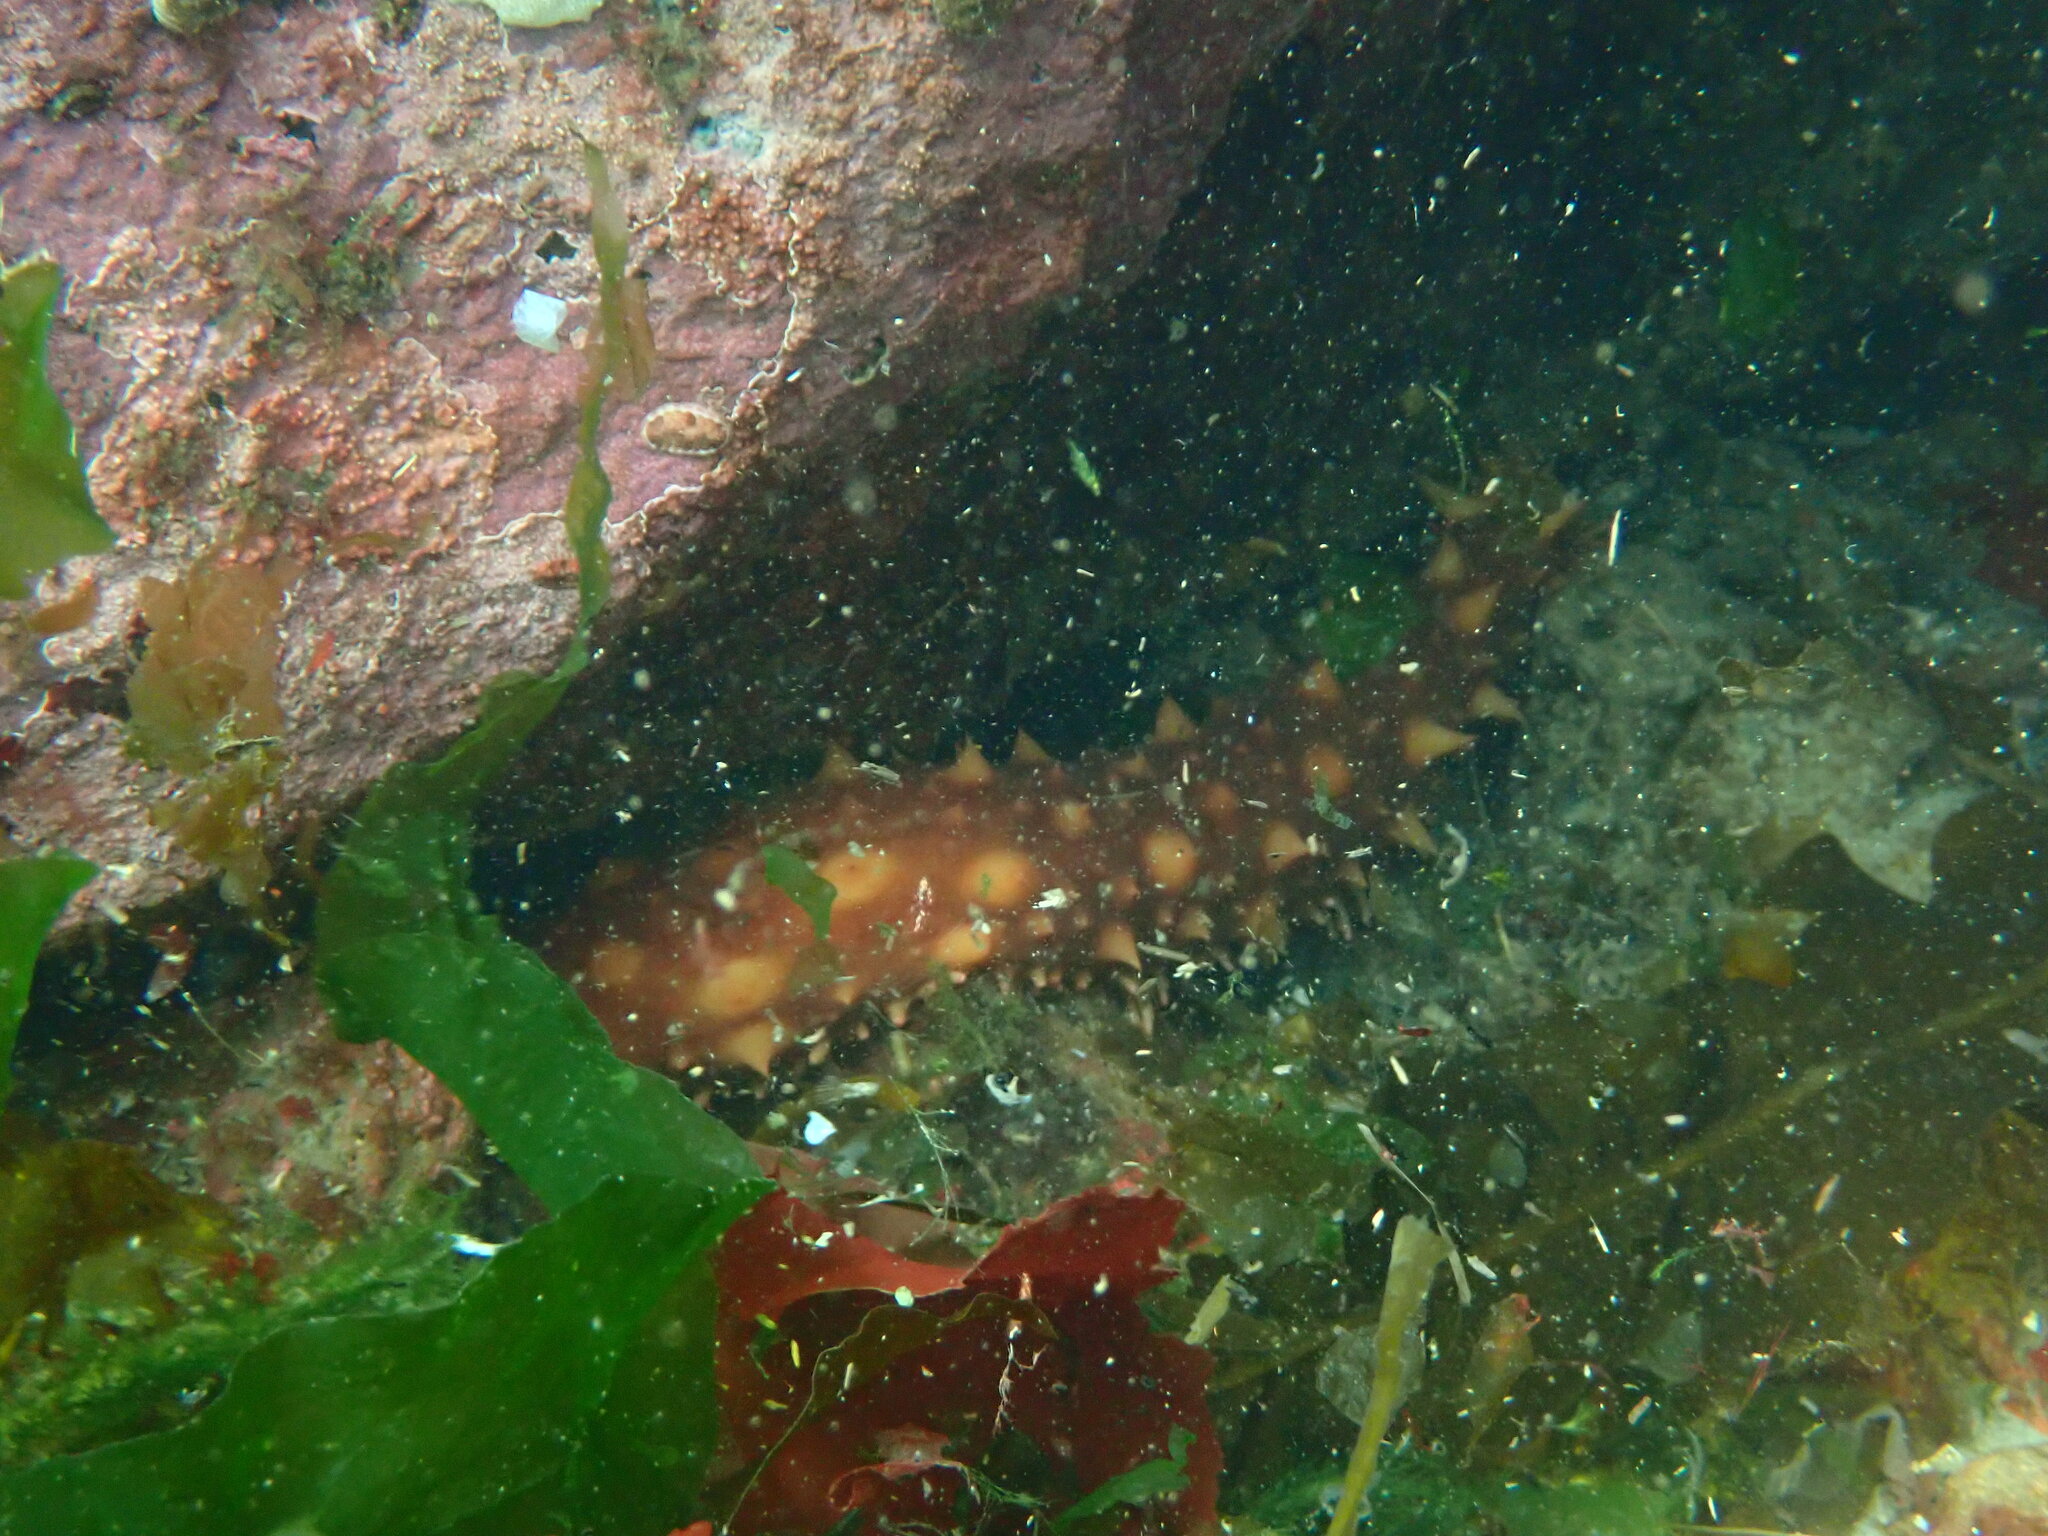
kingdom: Animalia
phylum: Echinodermata
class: Holothuroidea
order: Synallactida
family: Stichopodidae
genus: Apostichopus
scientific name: Apostichopus californicus
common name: California sea cucumber
